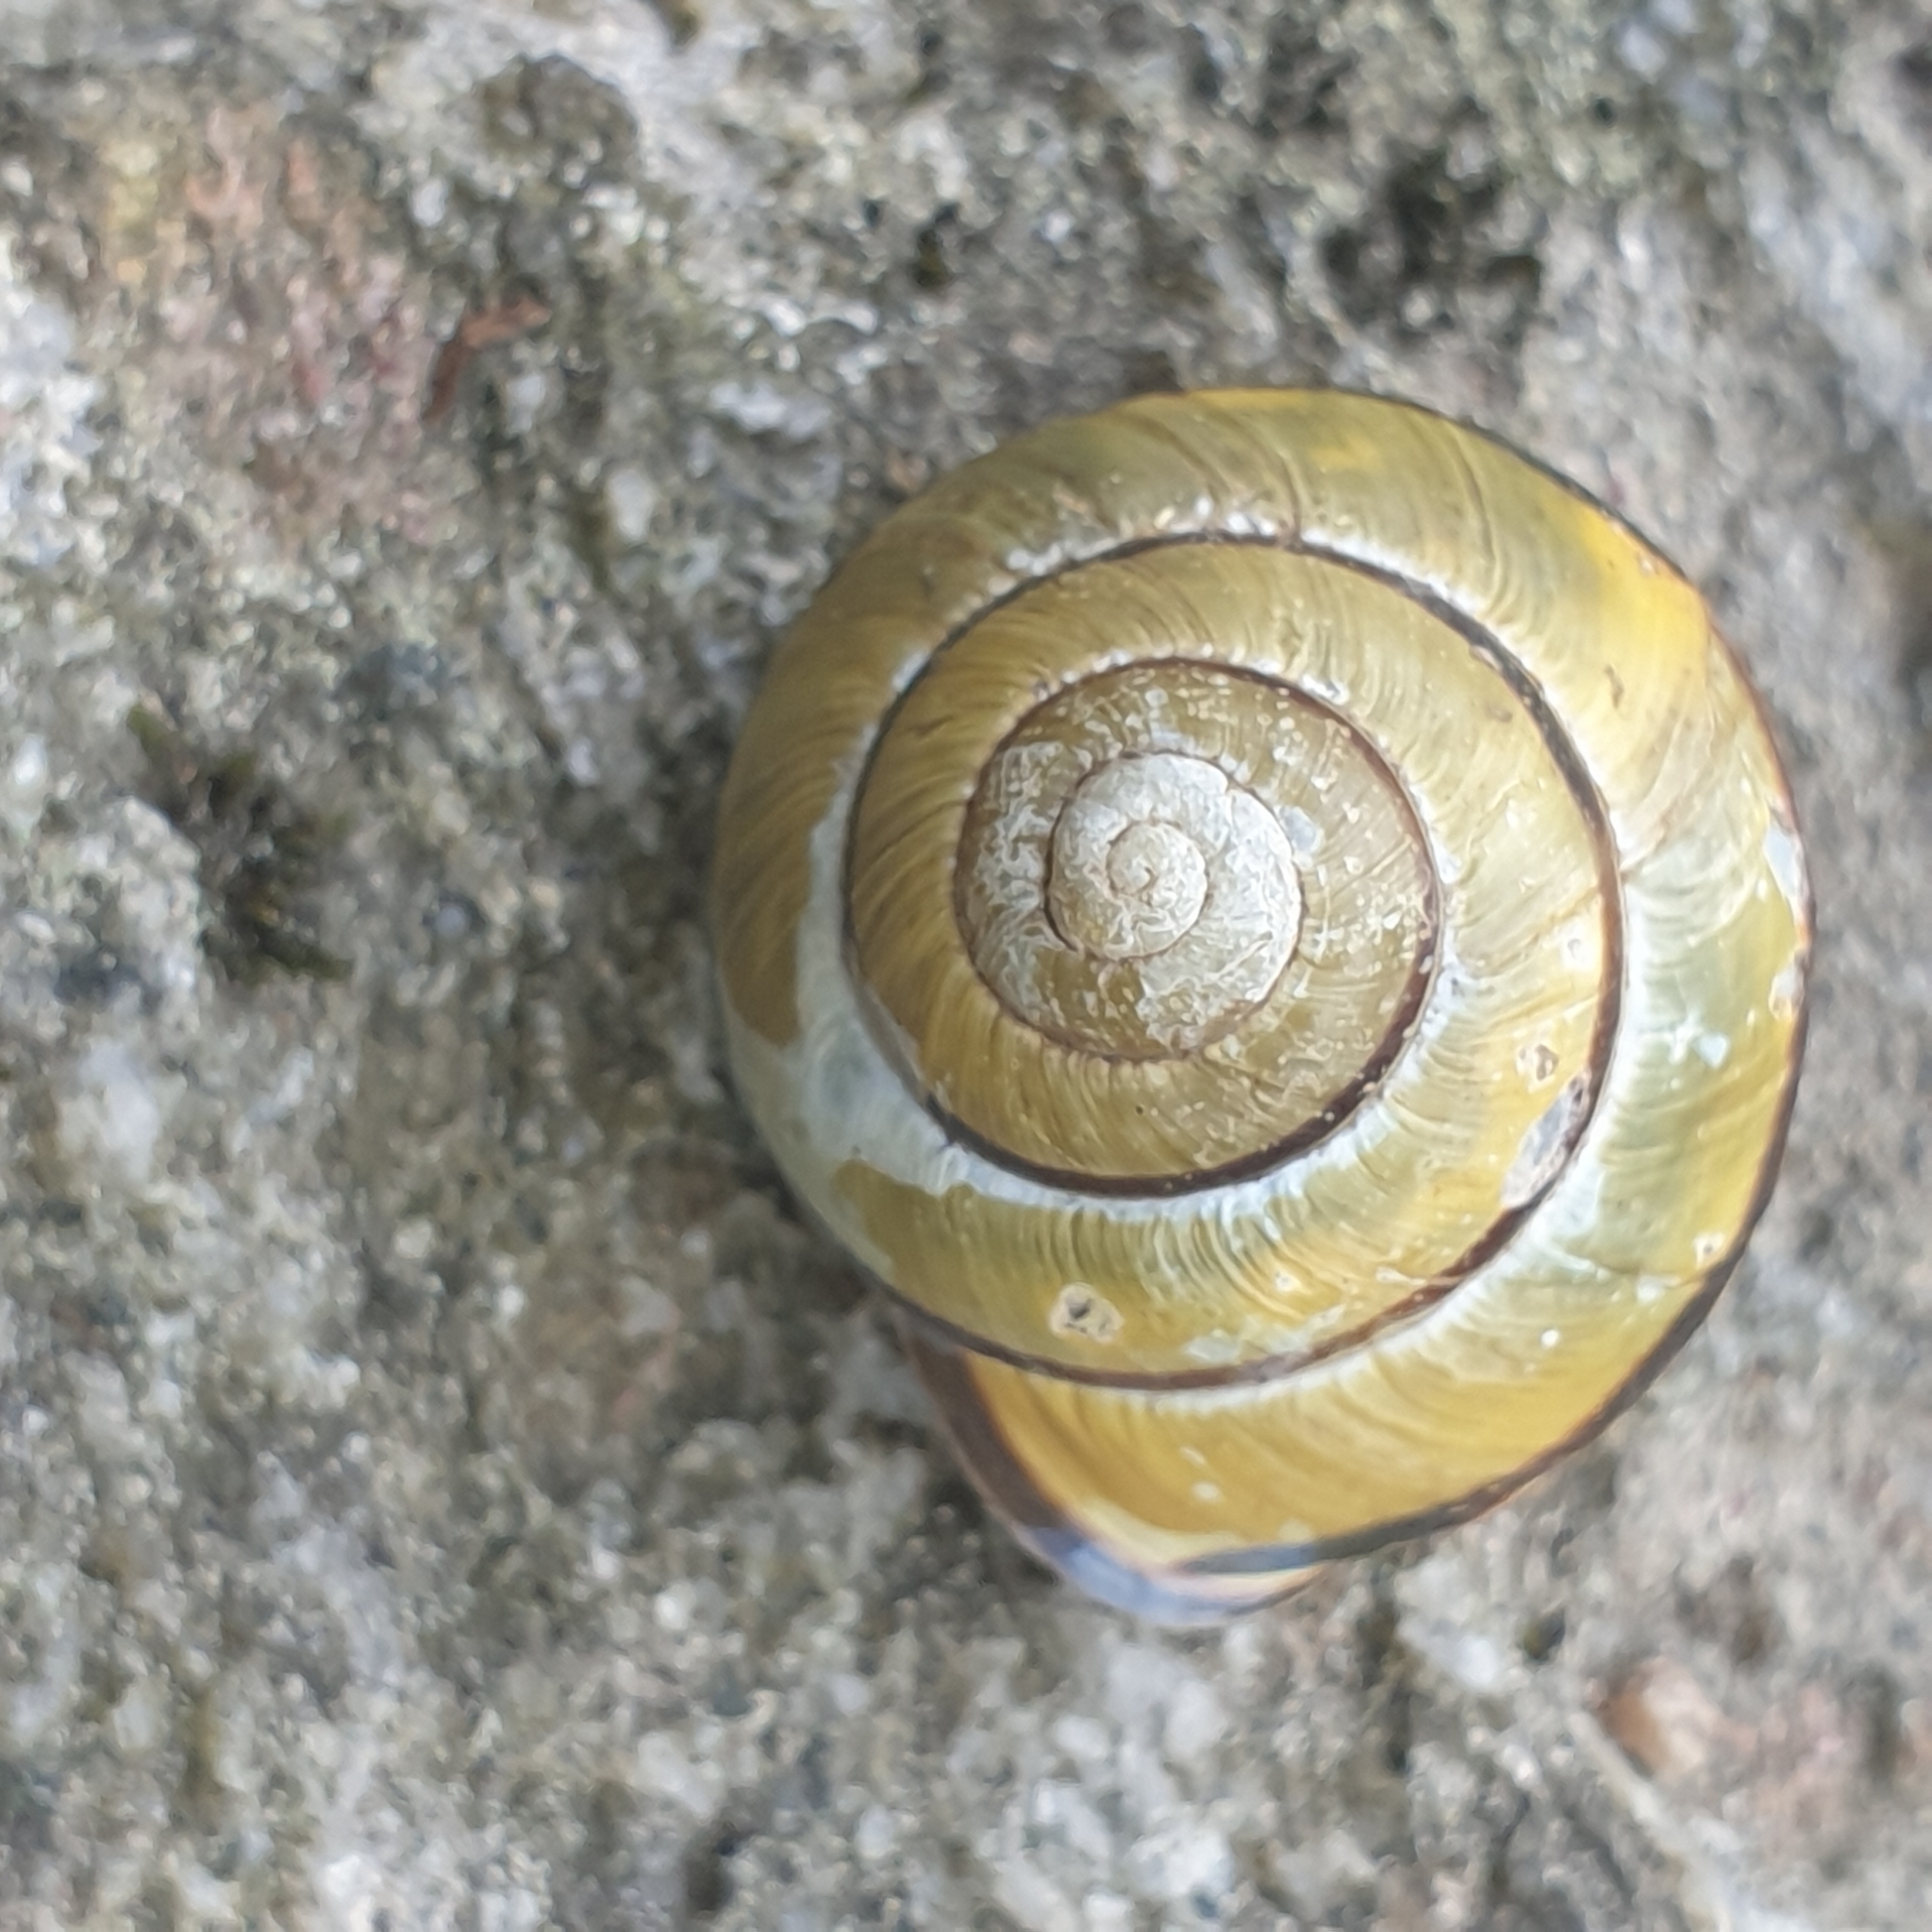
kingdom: Animalia
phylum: Mollusca
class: Gastropoda
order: Stylommatophora
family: Helicidae
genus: Cepaea
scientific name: Cepaea nemoralis
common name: Grovesnail
